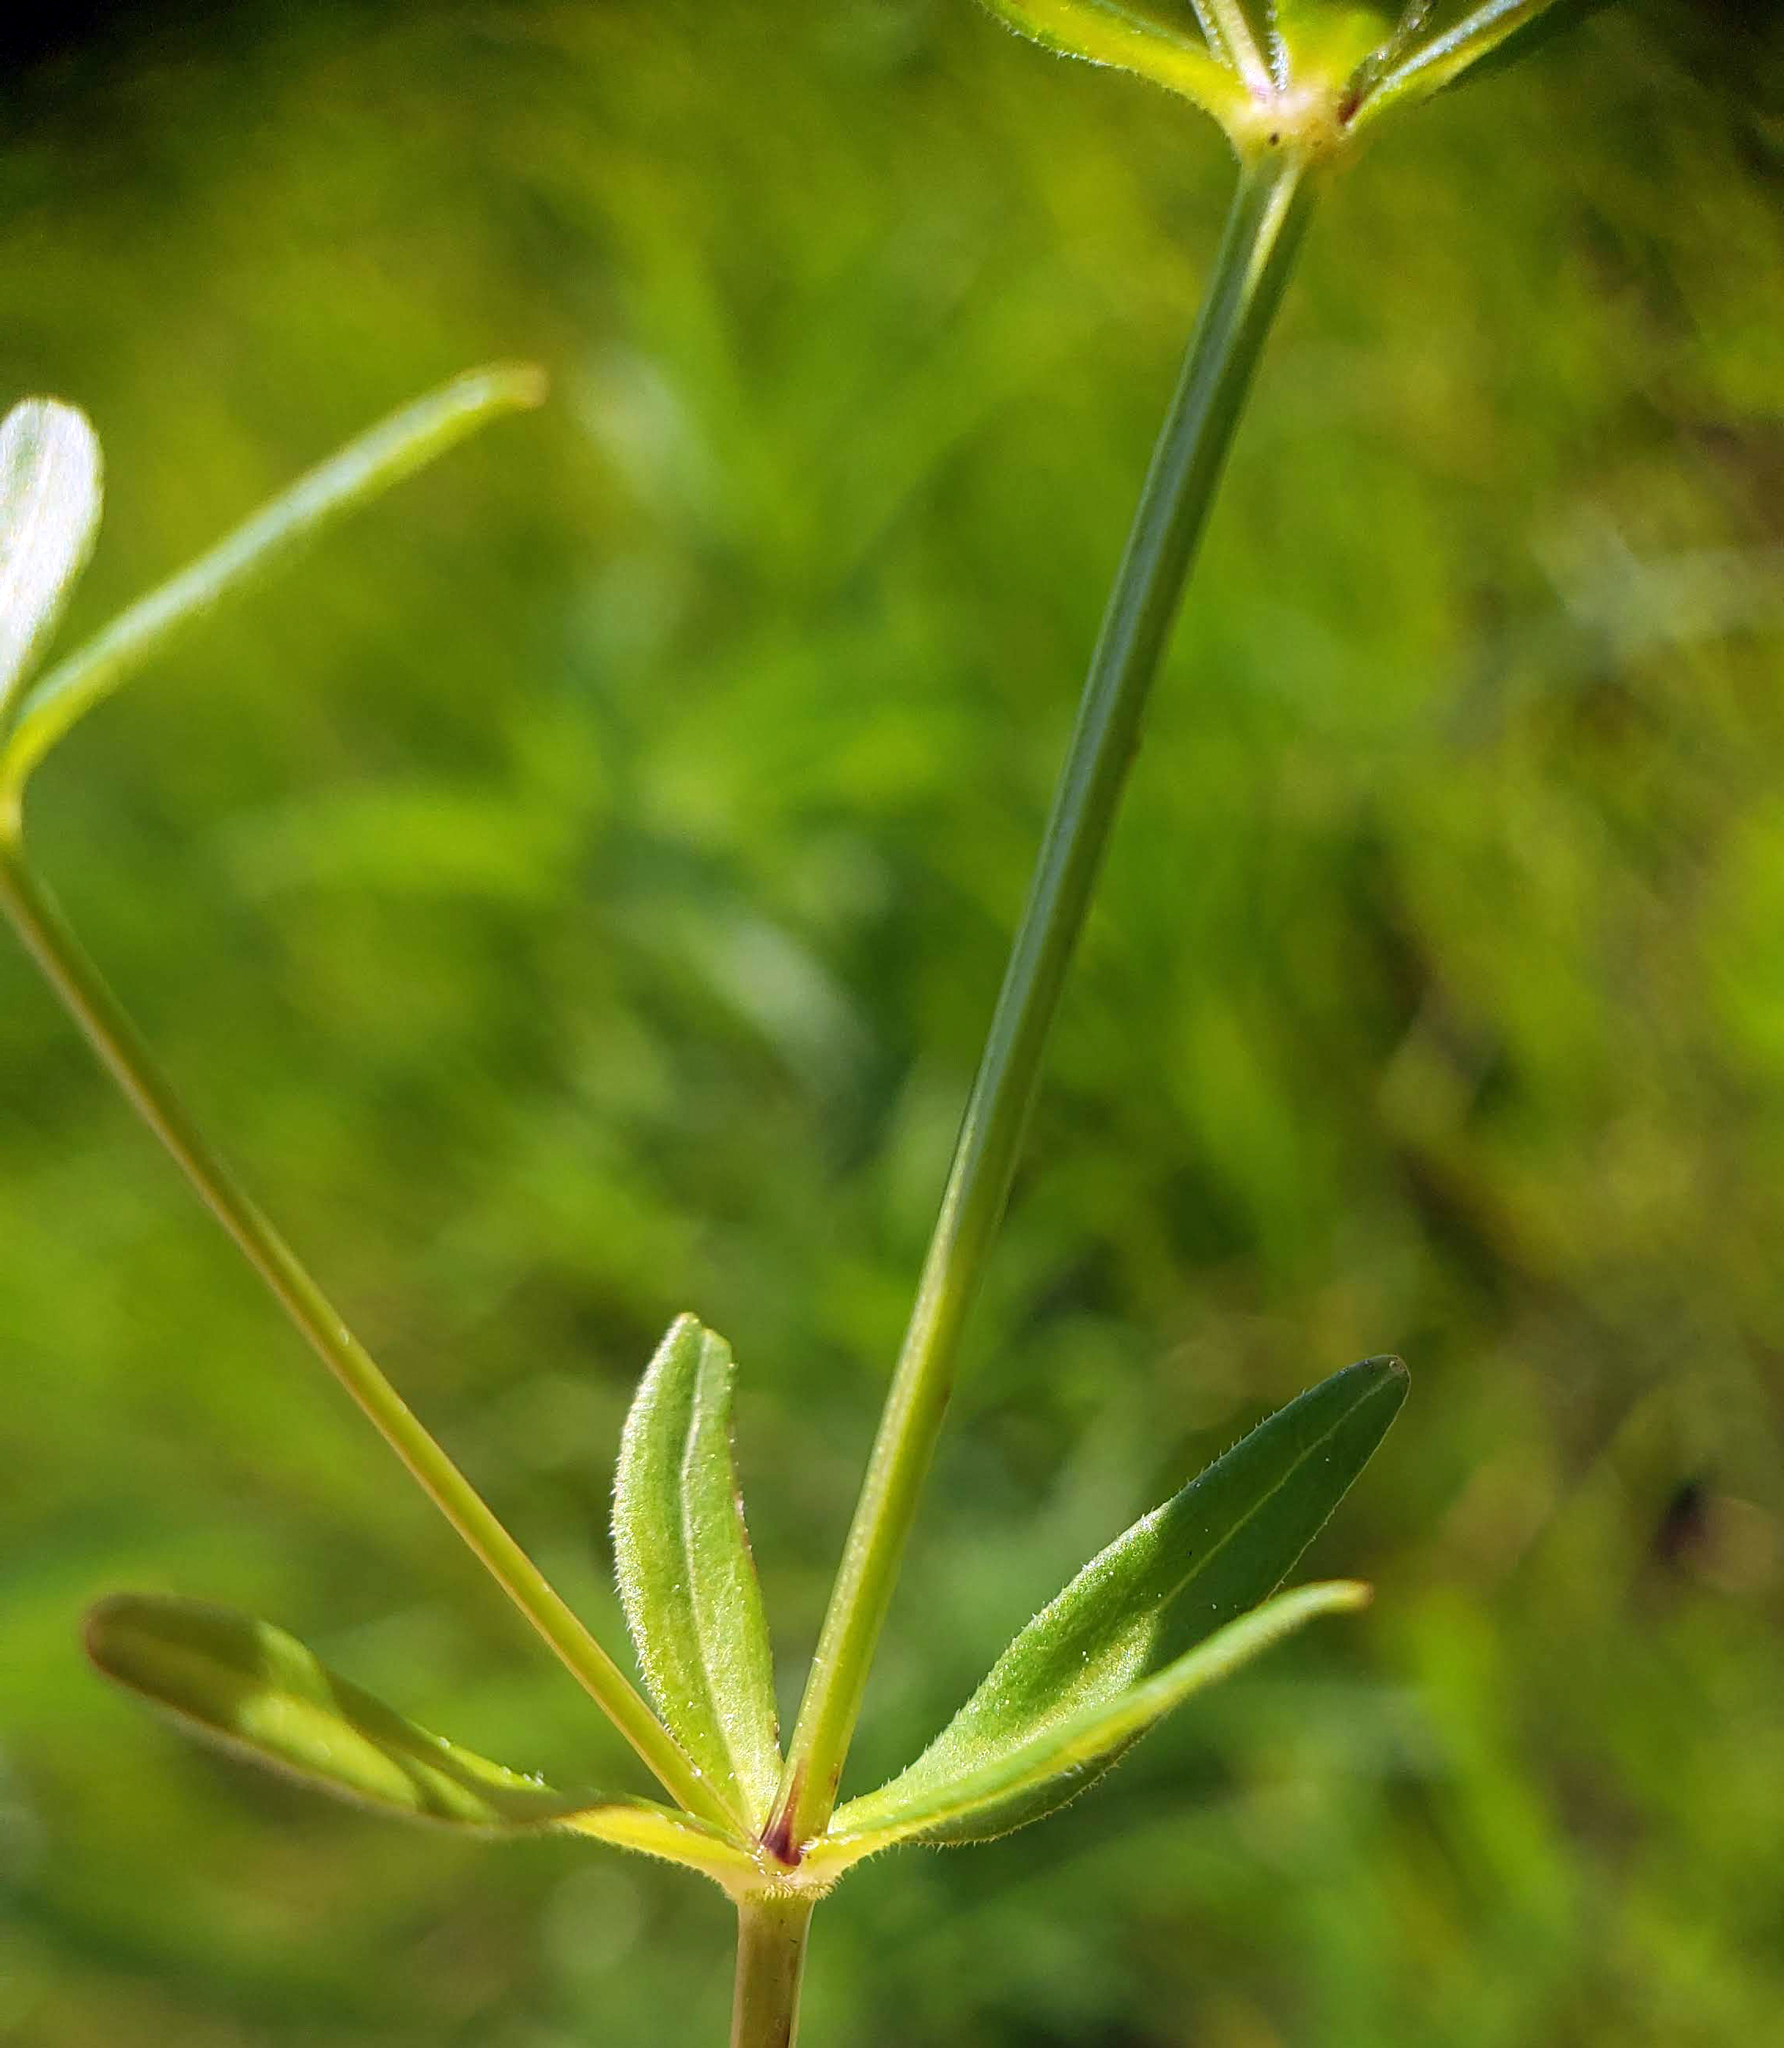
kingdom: Plantae
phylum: Tracheophyta
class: Magnoliopsida
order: Gentianales
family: Rubiaceae
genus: Galium
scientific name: Galium obtusum
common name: Blunt-leaved bedstraw
